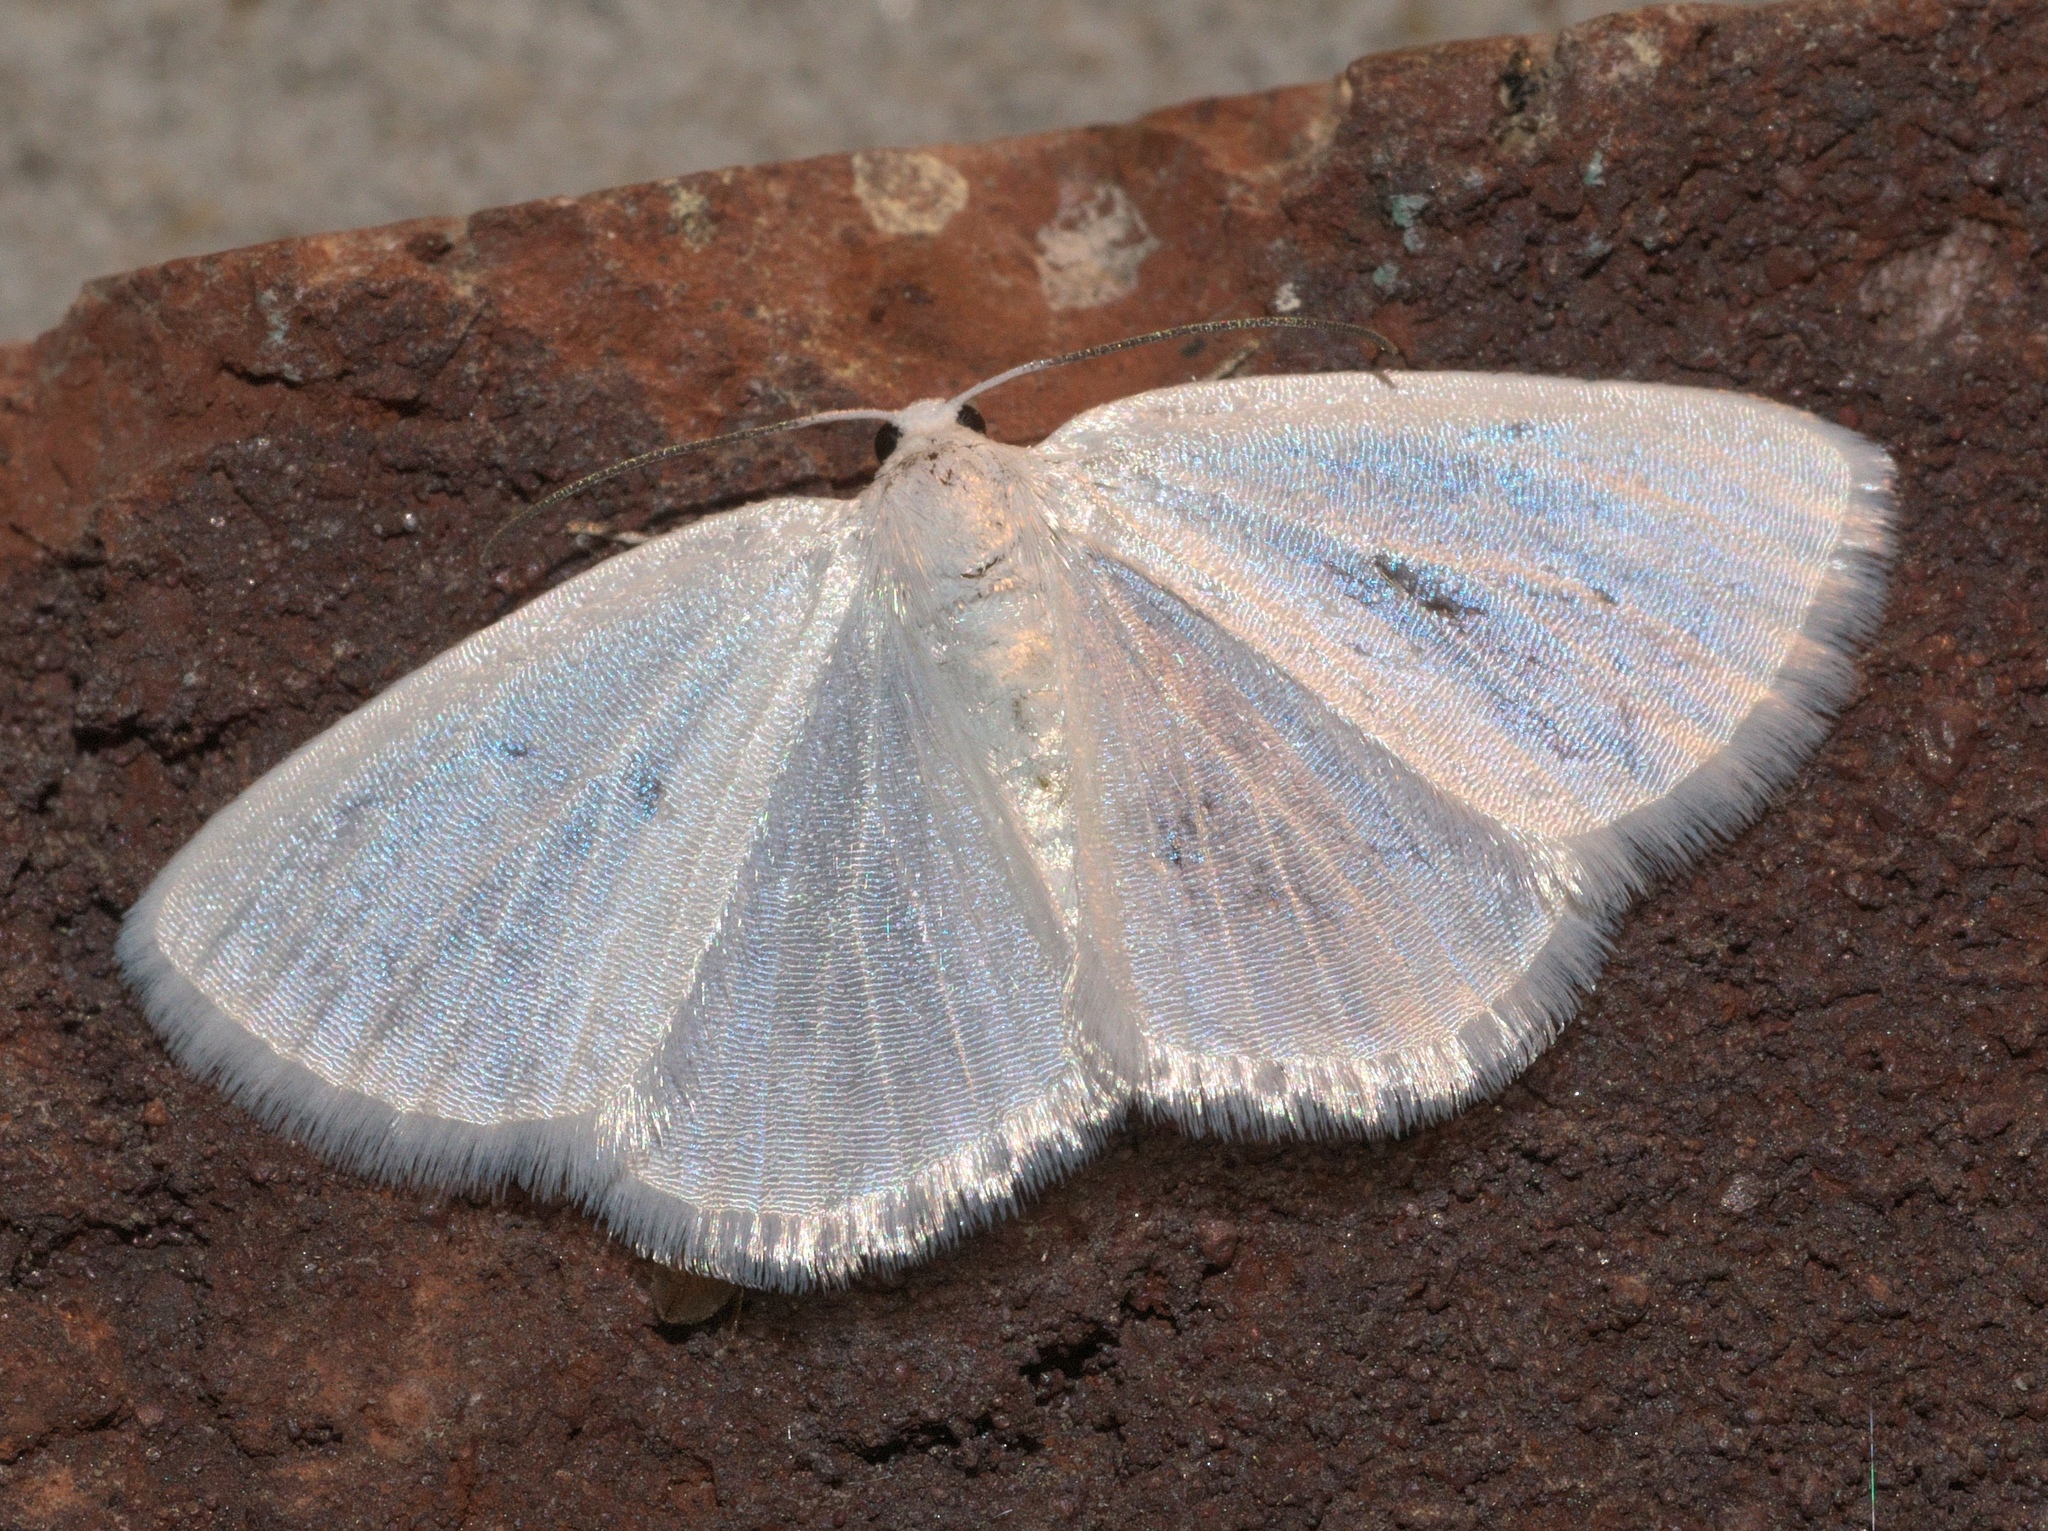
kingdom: Animalia
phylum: Arthropoda
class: Insecta
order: Lepidoptera
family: Geometridae
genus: Lomographa
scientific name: Lomographa vestaliata
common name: White spring moth
